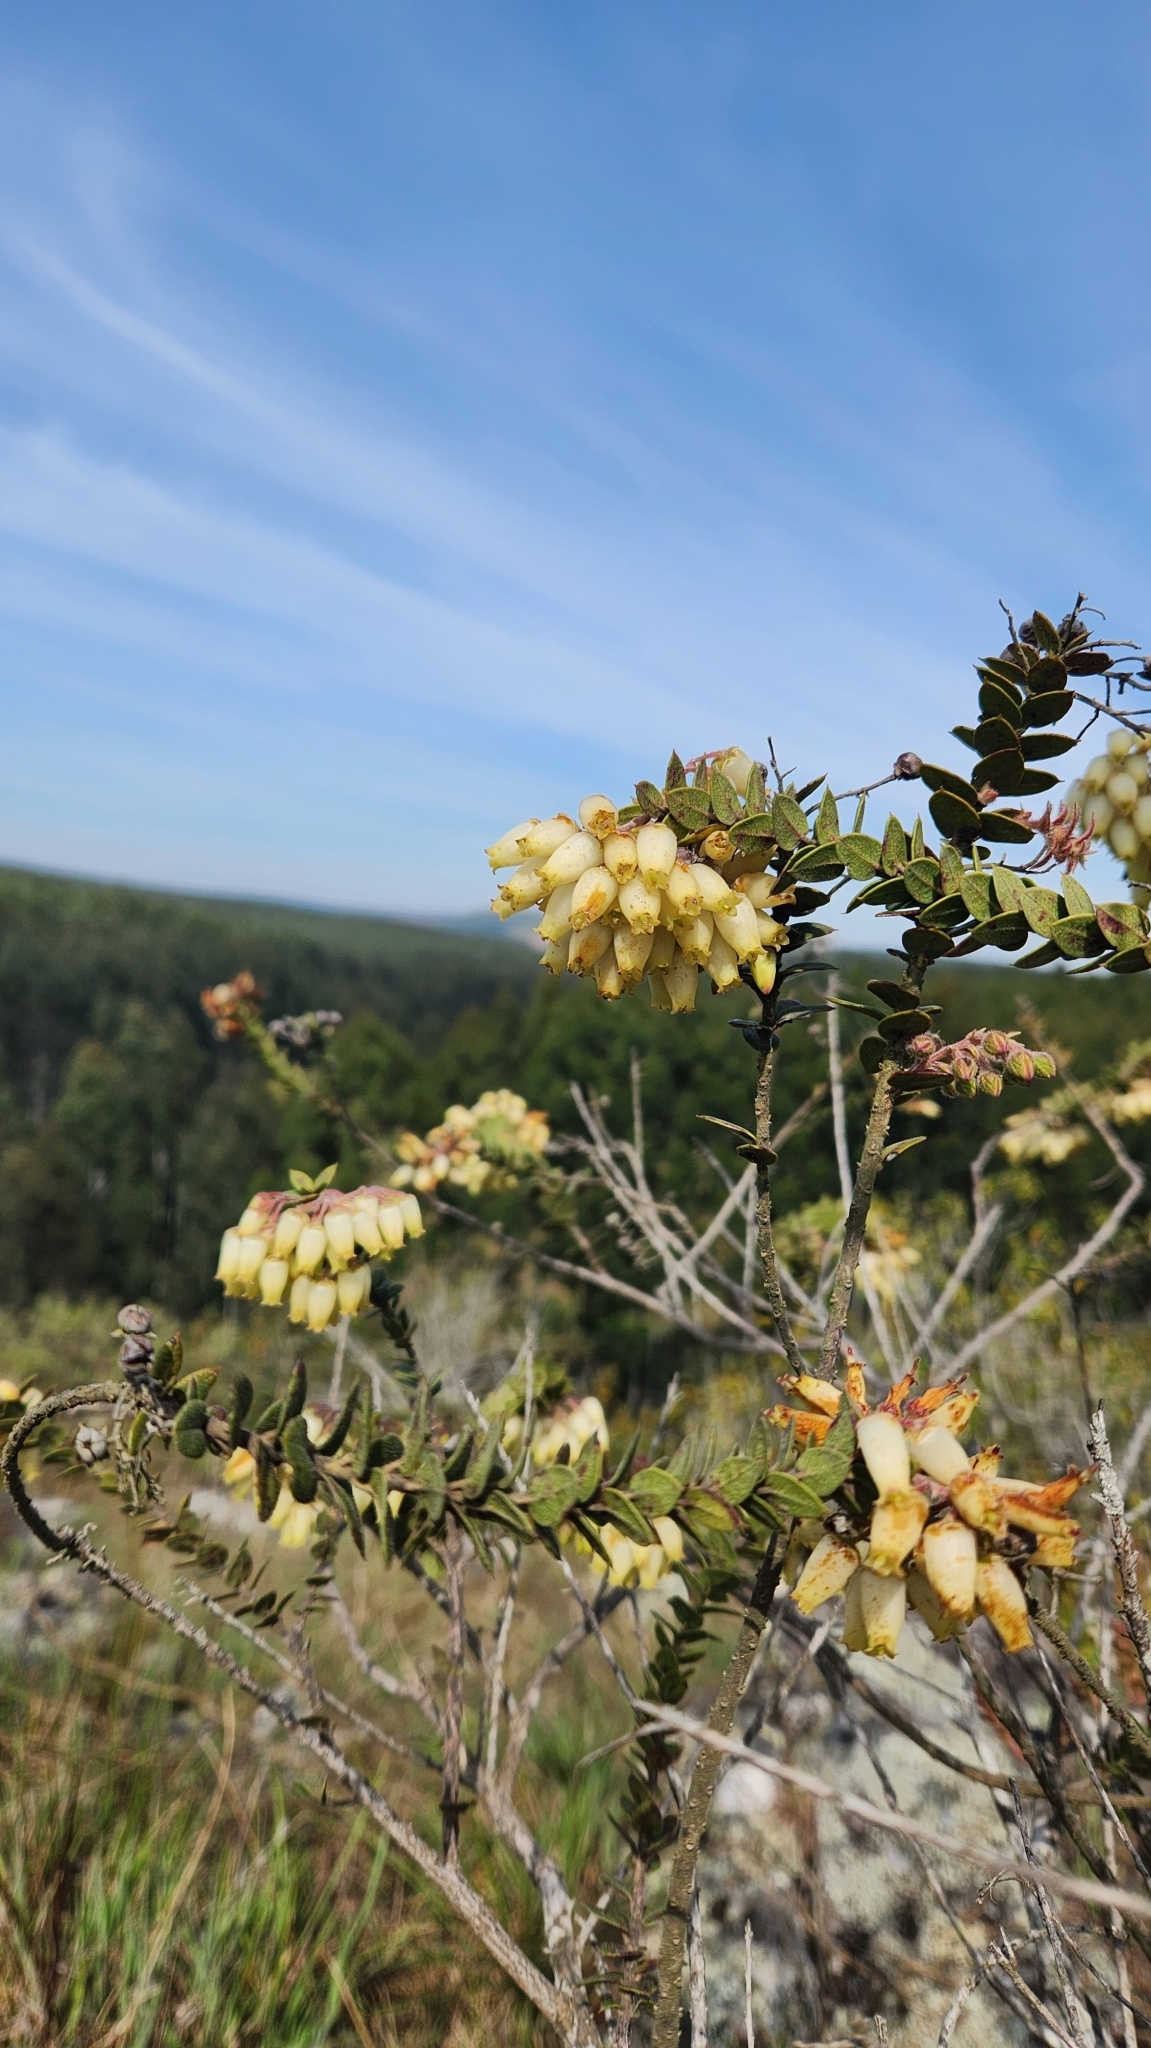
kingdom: Plantae
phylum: Tracheophyta
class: Magnoliopsida
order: Ericales
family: Ericaceae
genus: Agarista
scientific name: Agarista chlorantha
